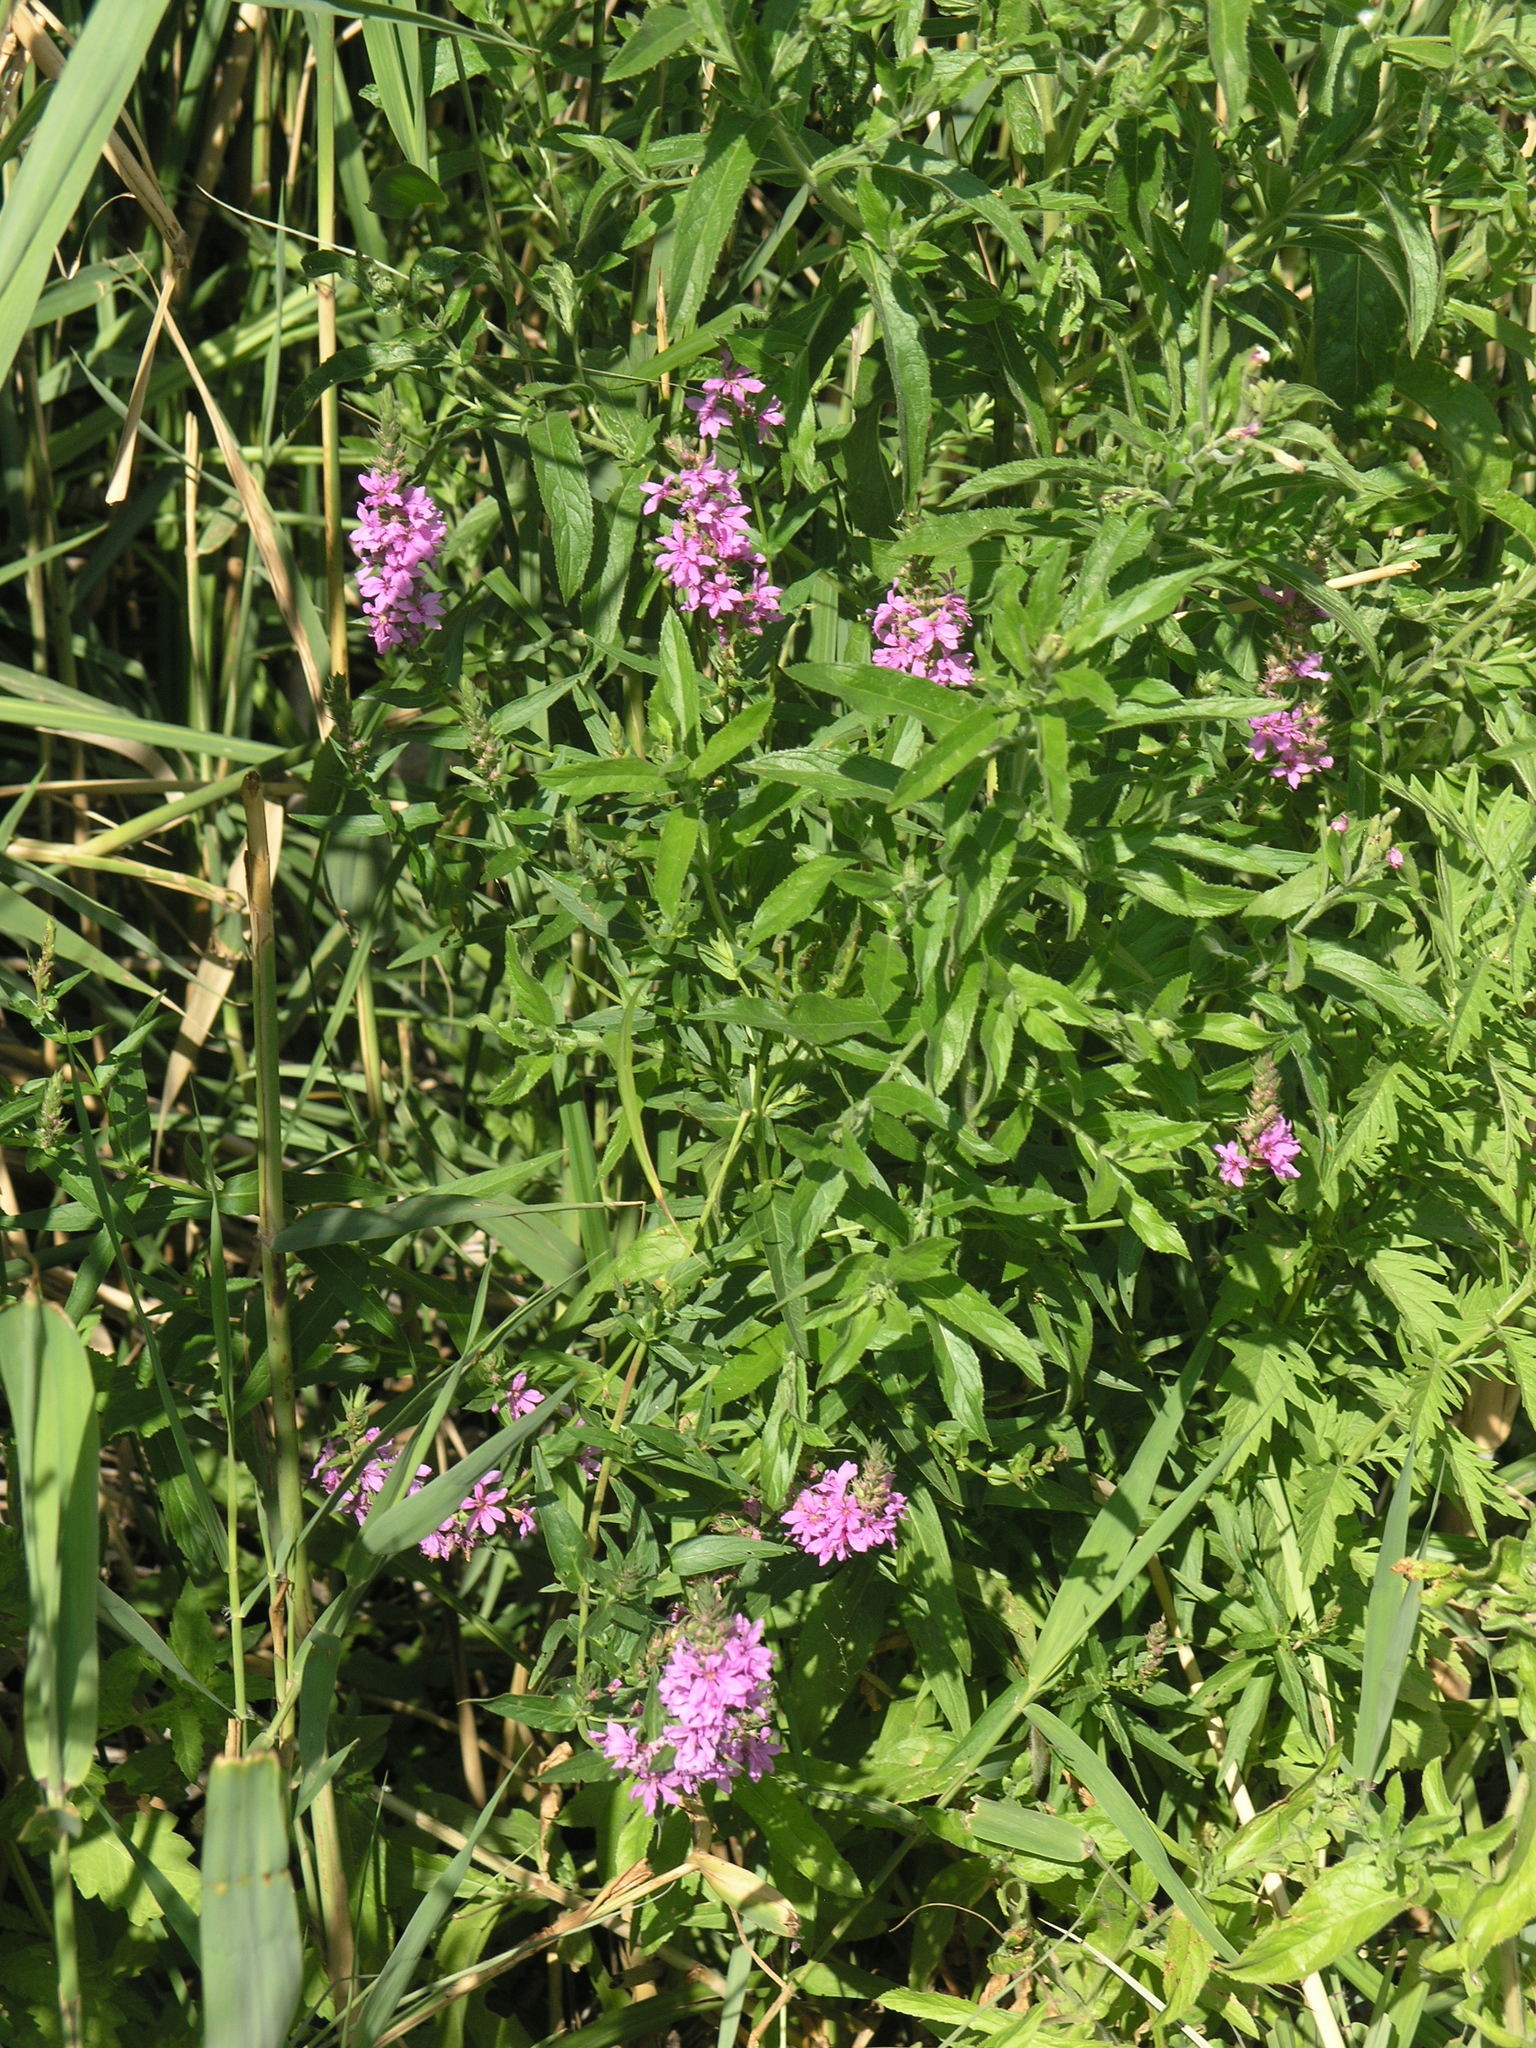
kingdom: Plantae
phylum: Tracheophyta
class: Magnoliopsida
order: Myrtales
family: Lythraceae
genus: Lythrum
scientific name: Lythrum salicaria
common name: Purple loosestrife
